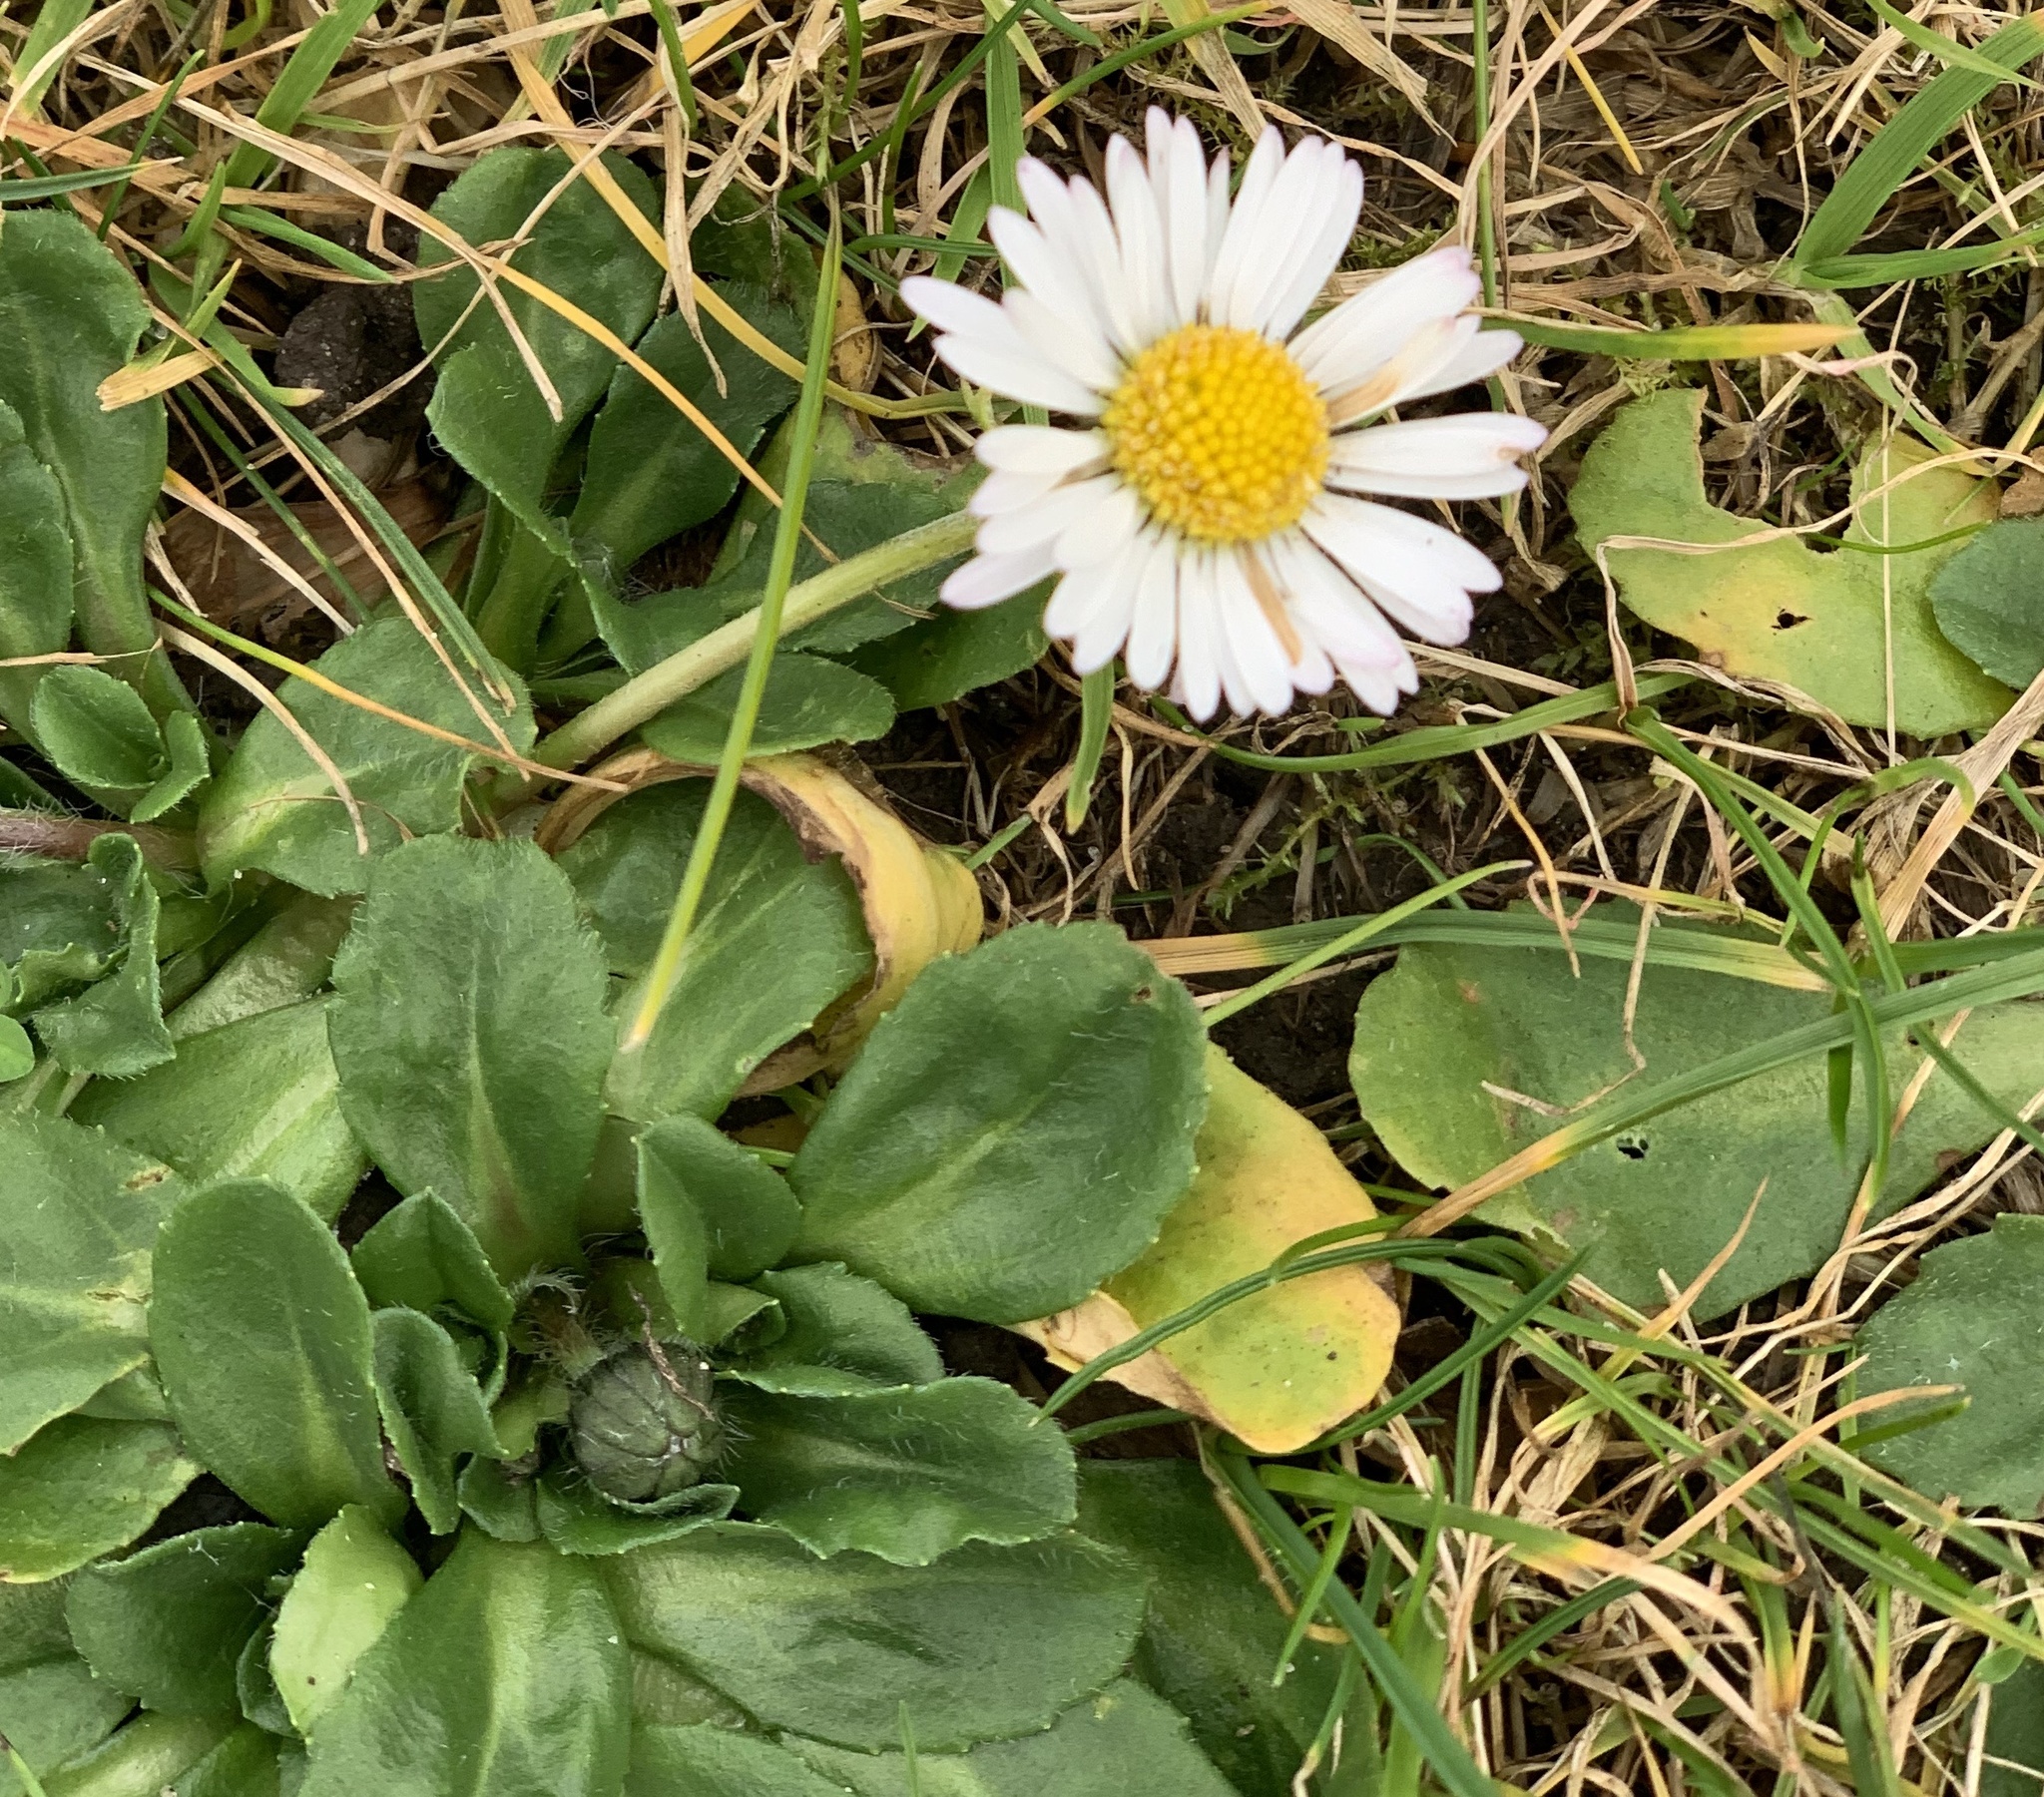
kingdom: Plantae
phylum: Tracheophyta
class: Magnoliopsida
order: Asterales
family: Asteraceae
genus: Bellis
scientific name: Bellis perennis
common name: Lawndaisy
